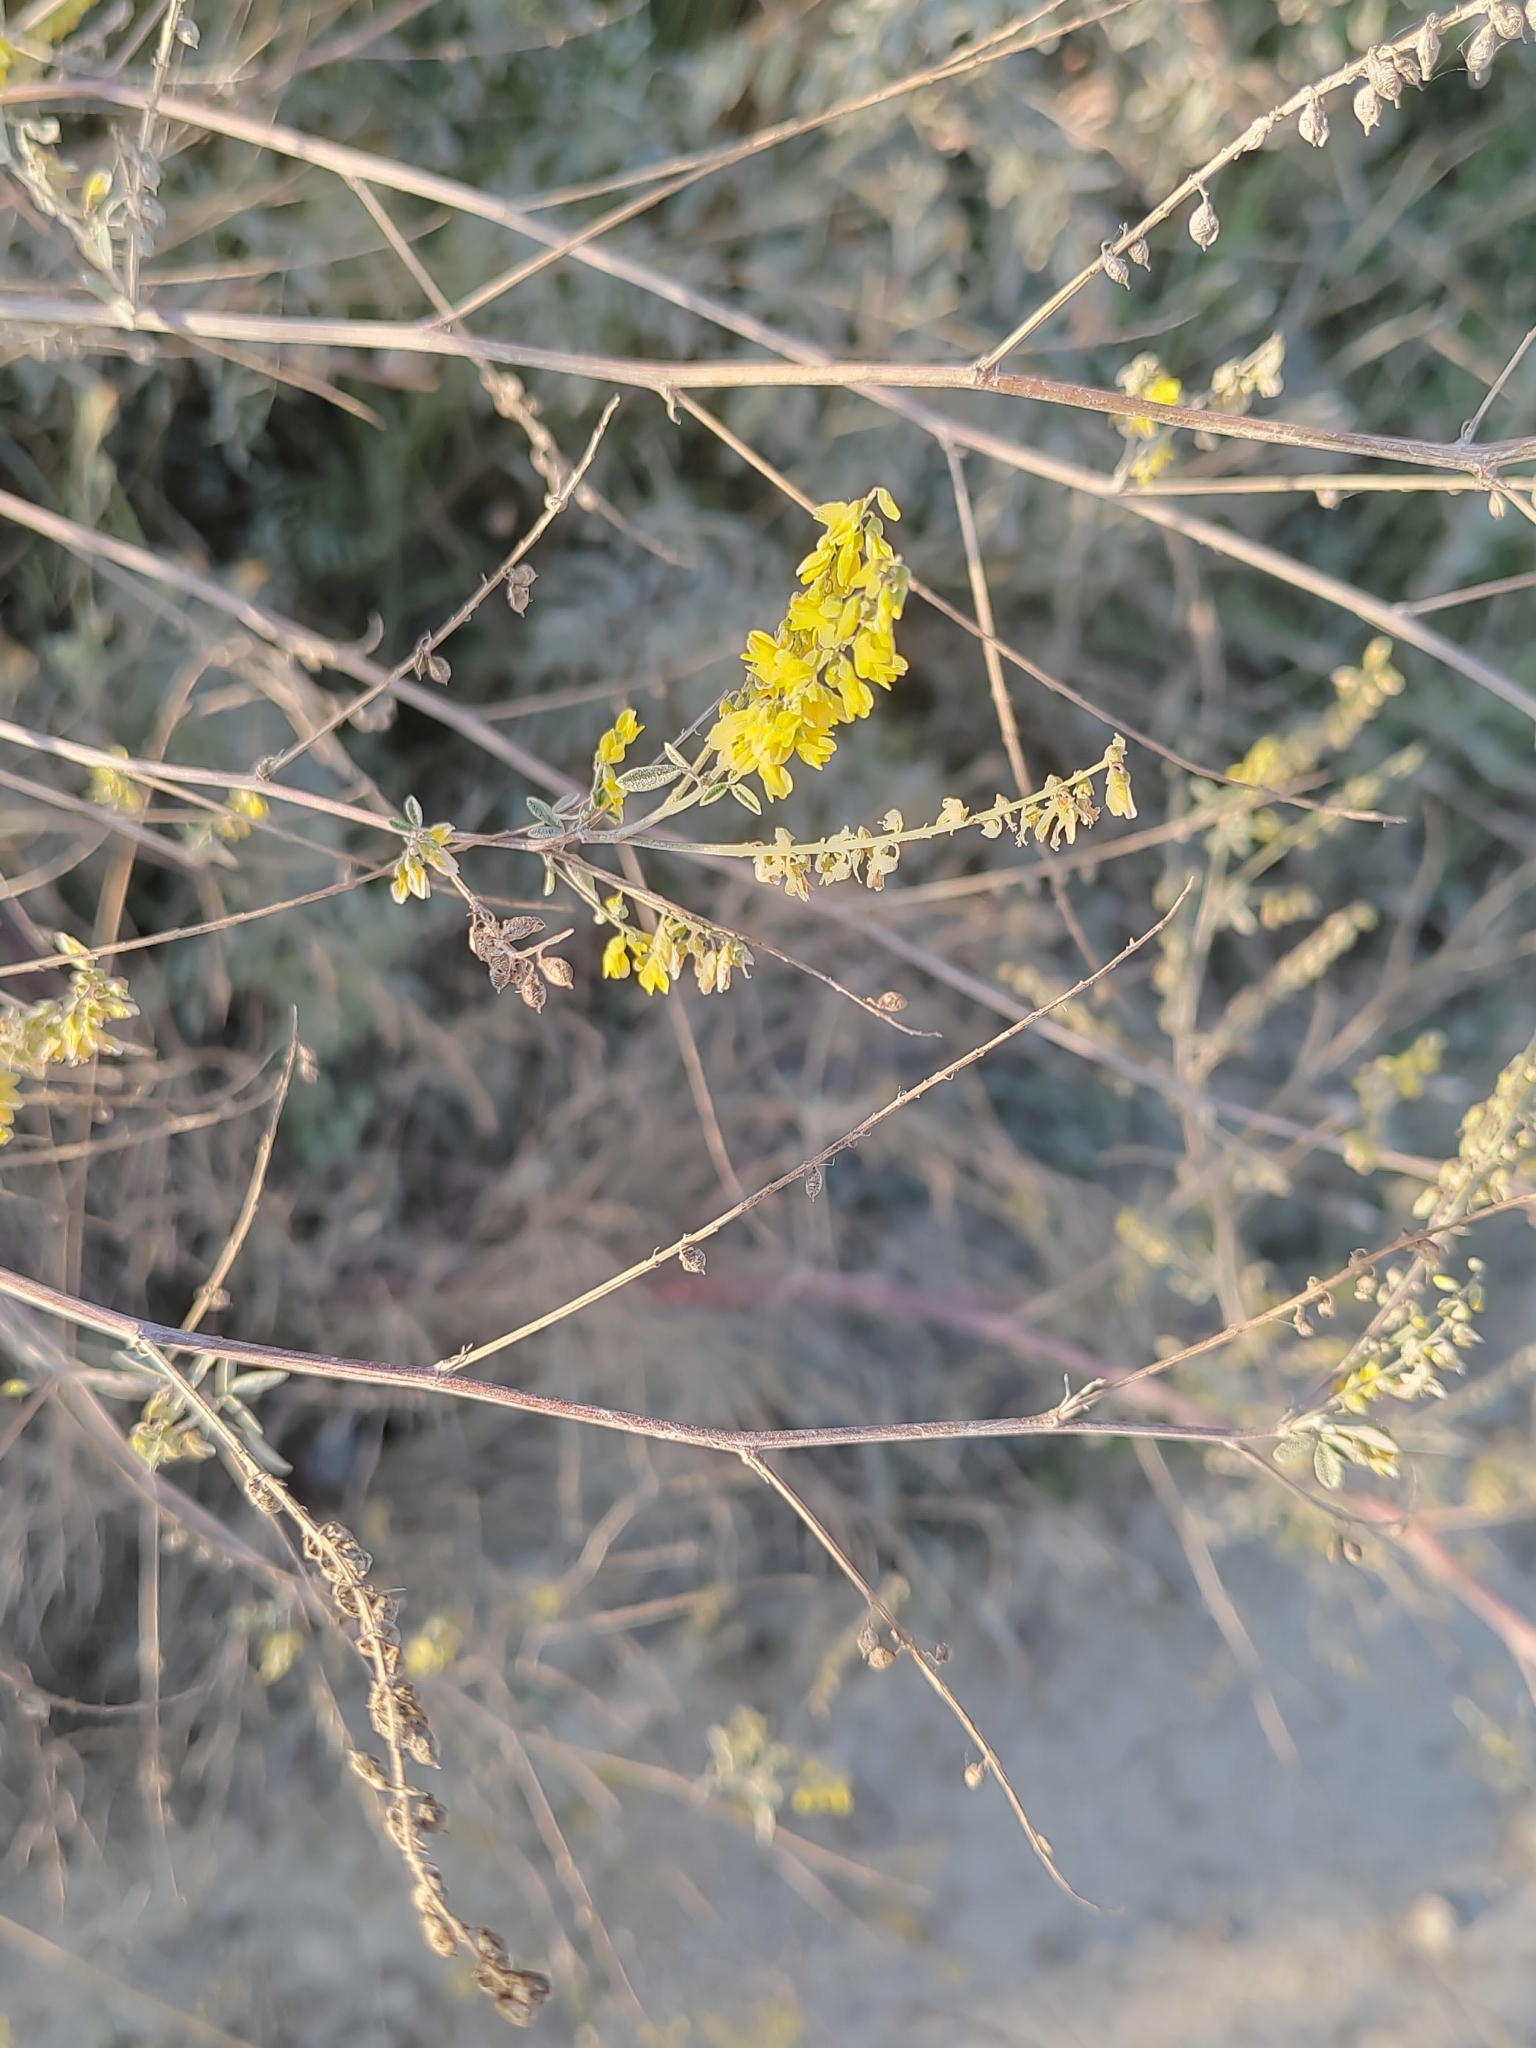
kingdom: Plantae
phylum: Tracheophyta
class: Magnoliopsida
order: Fabales
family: Fabaceae
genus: Melilotus
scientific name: Melilotus officinalis
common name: Sweetclover
